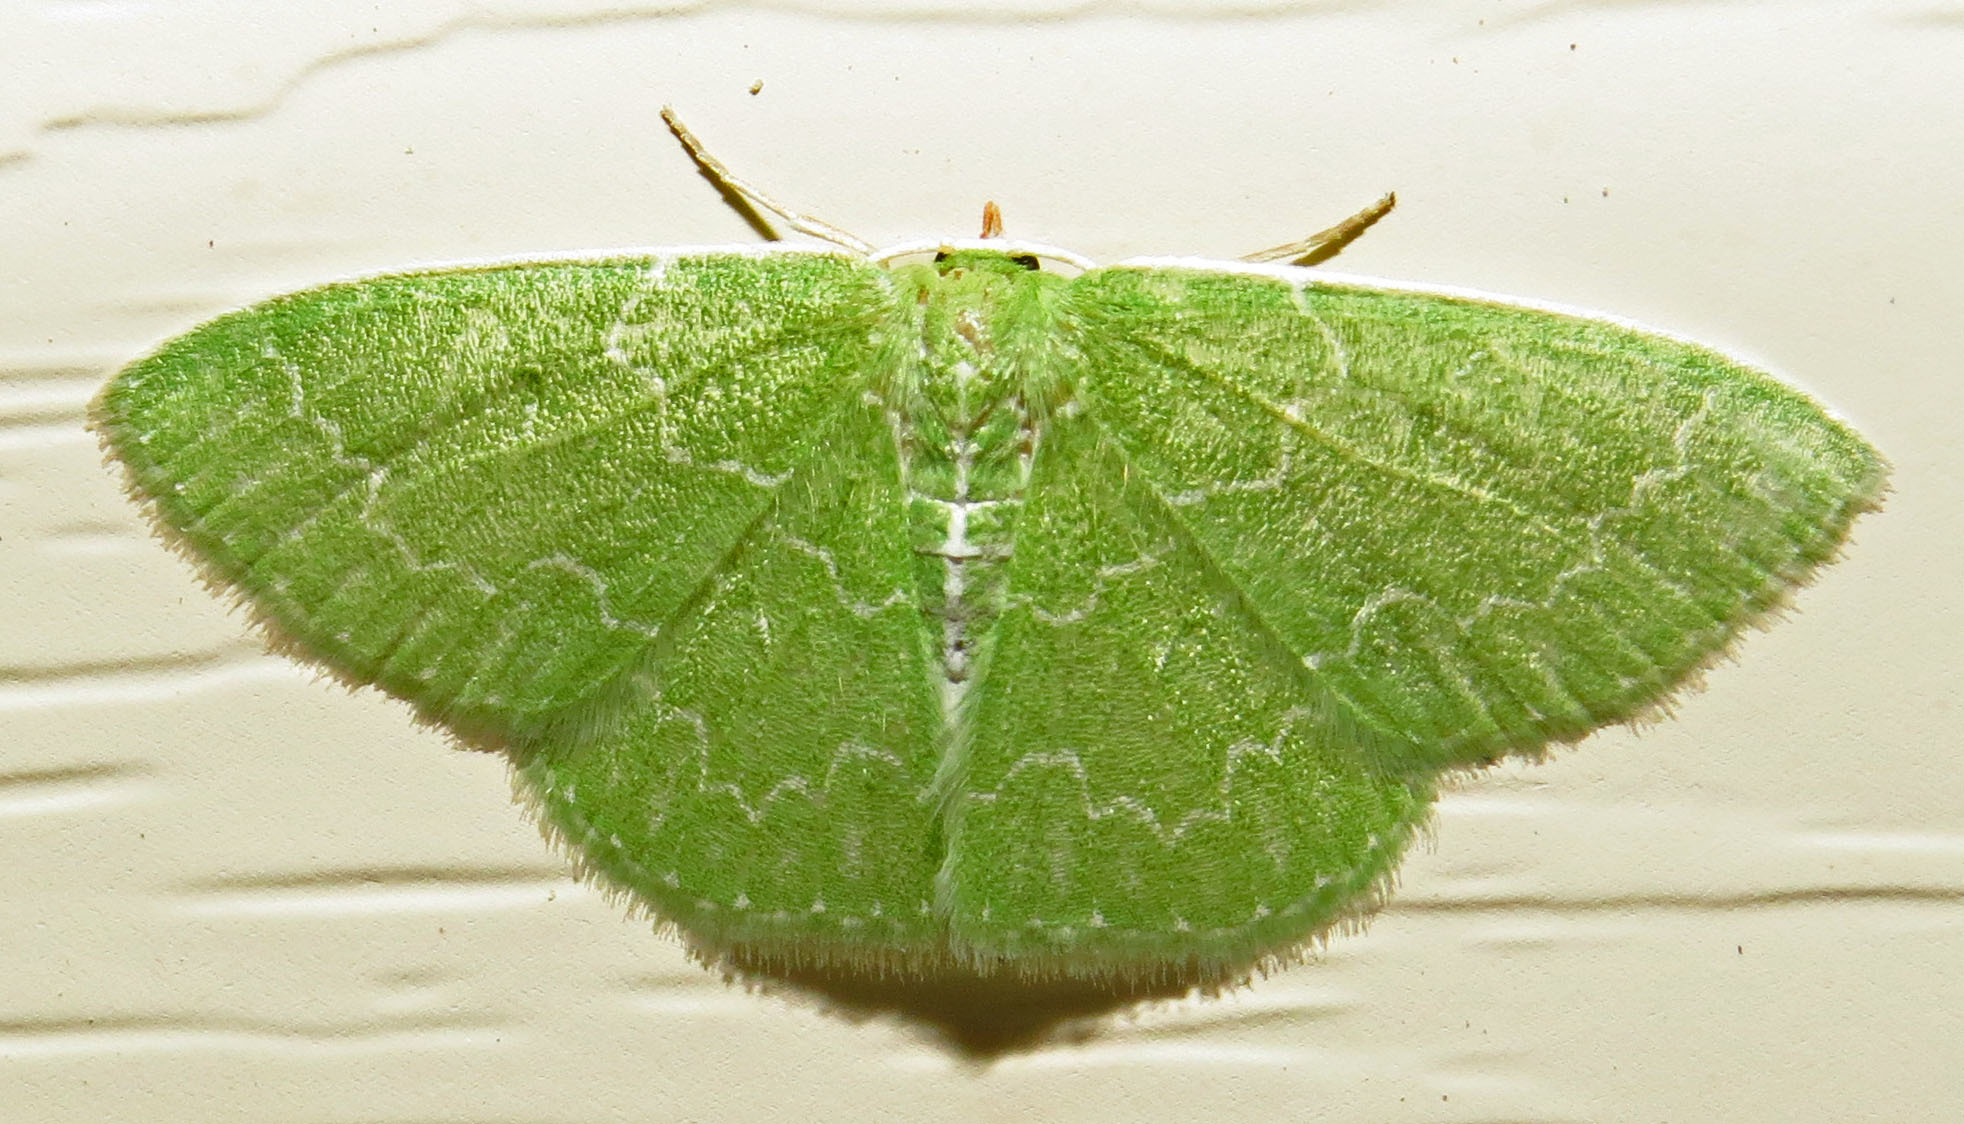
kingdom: Animalia
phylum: Arthropoda
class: Insecta
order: Lepidoptera
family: Geometridae
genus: Synchlora
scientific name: Synchlora frondaria
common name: Southern emerald
